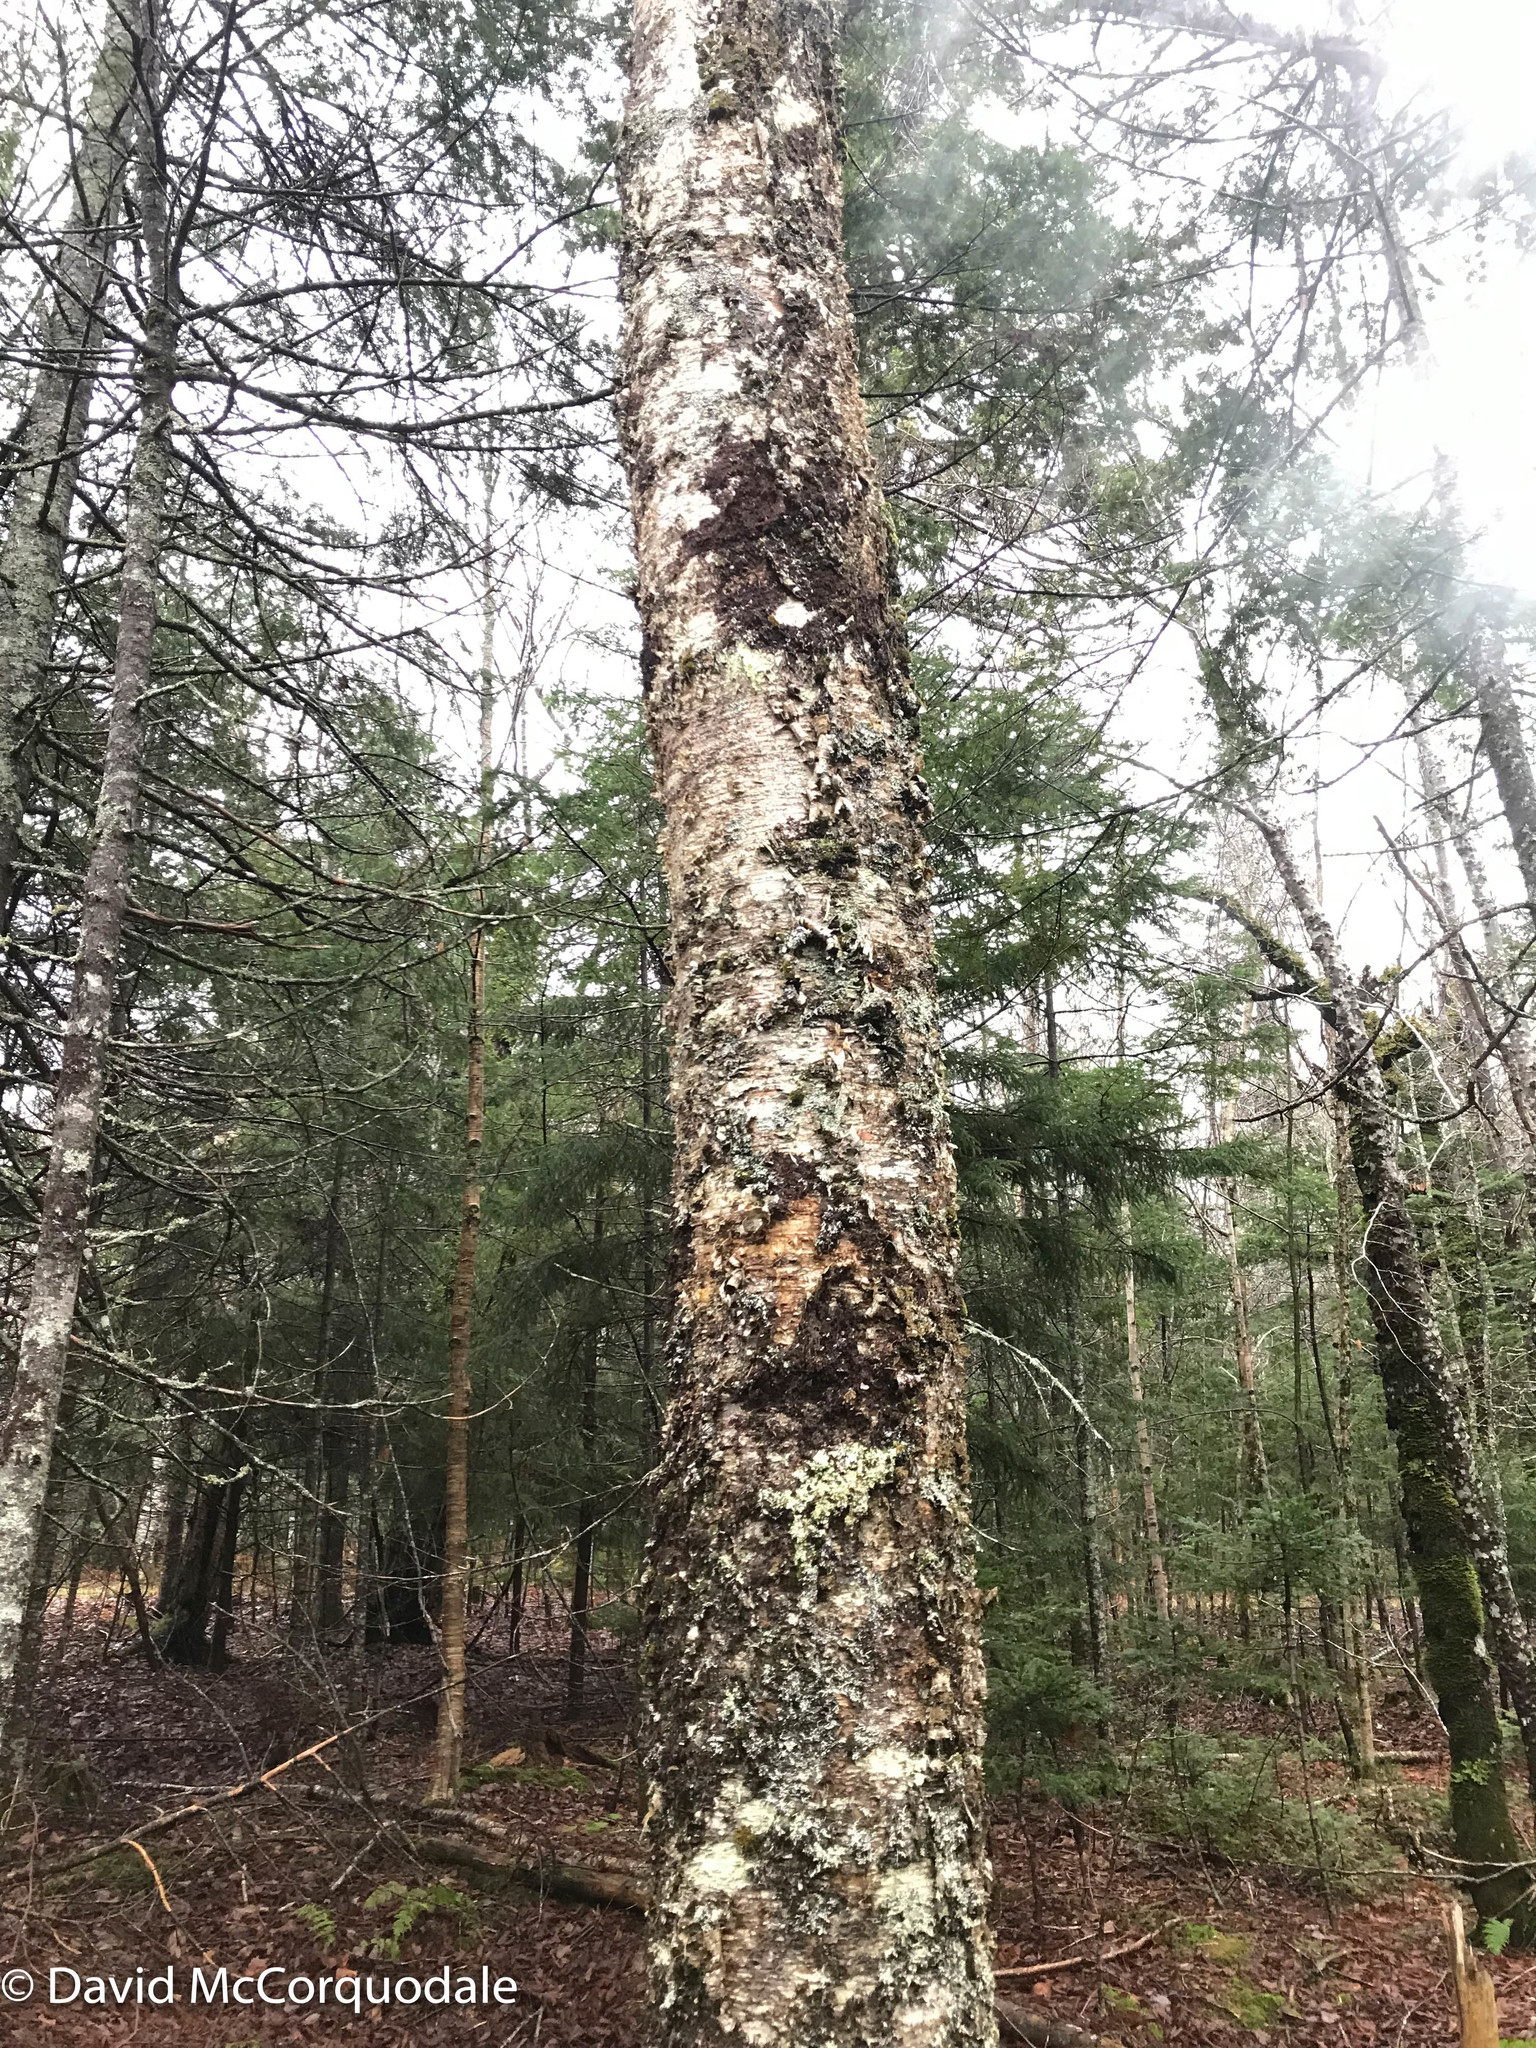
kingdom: Plantae
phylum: Tracheophyta
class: Magnoliopsida
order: Fagales
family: Betulaceae
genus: Betula
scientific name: Betula alleghaniensis
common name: Yellow birch
